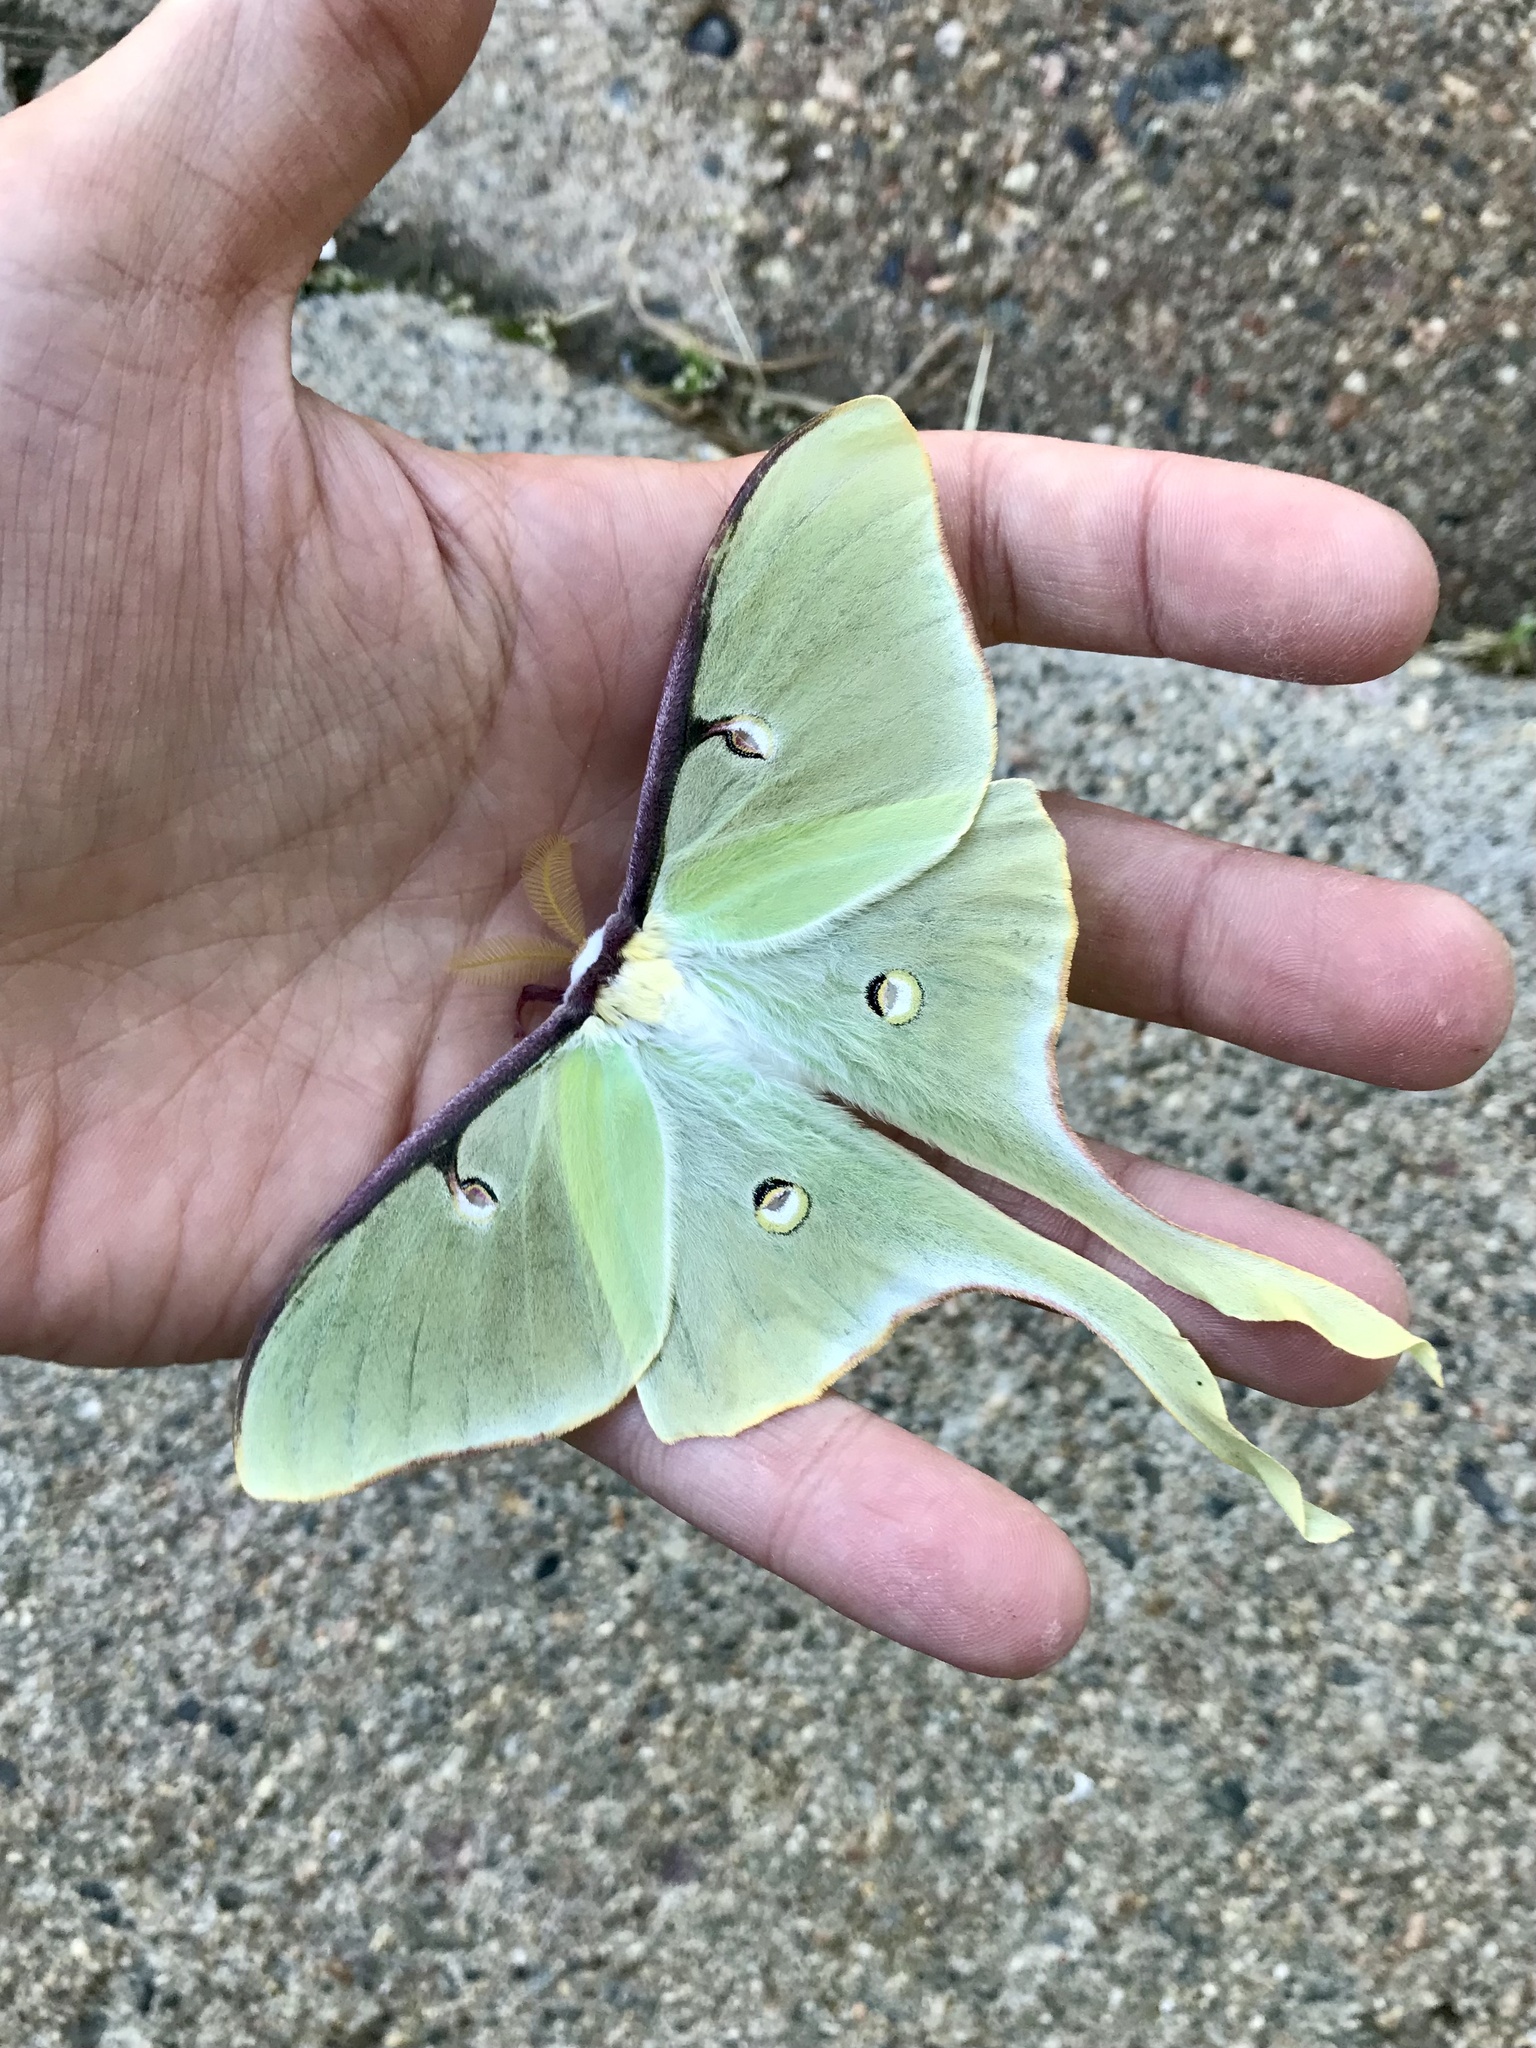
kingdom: Animalia
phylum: Arthropoda
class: Insecta
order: Lepidoptera
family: Saturniidae
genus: Actias
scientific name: Actias luna
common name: Luna moth
